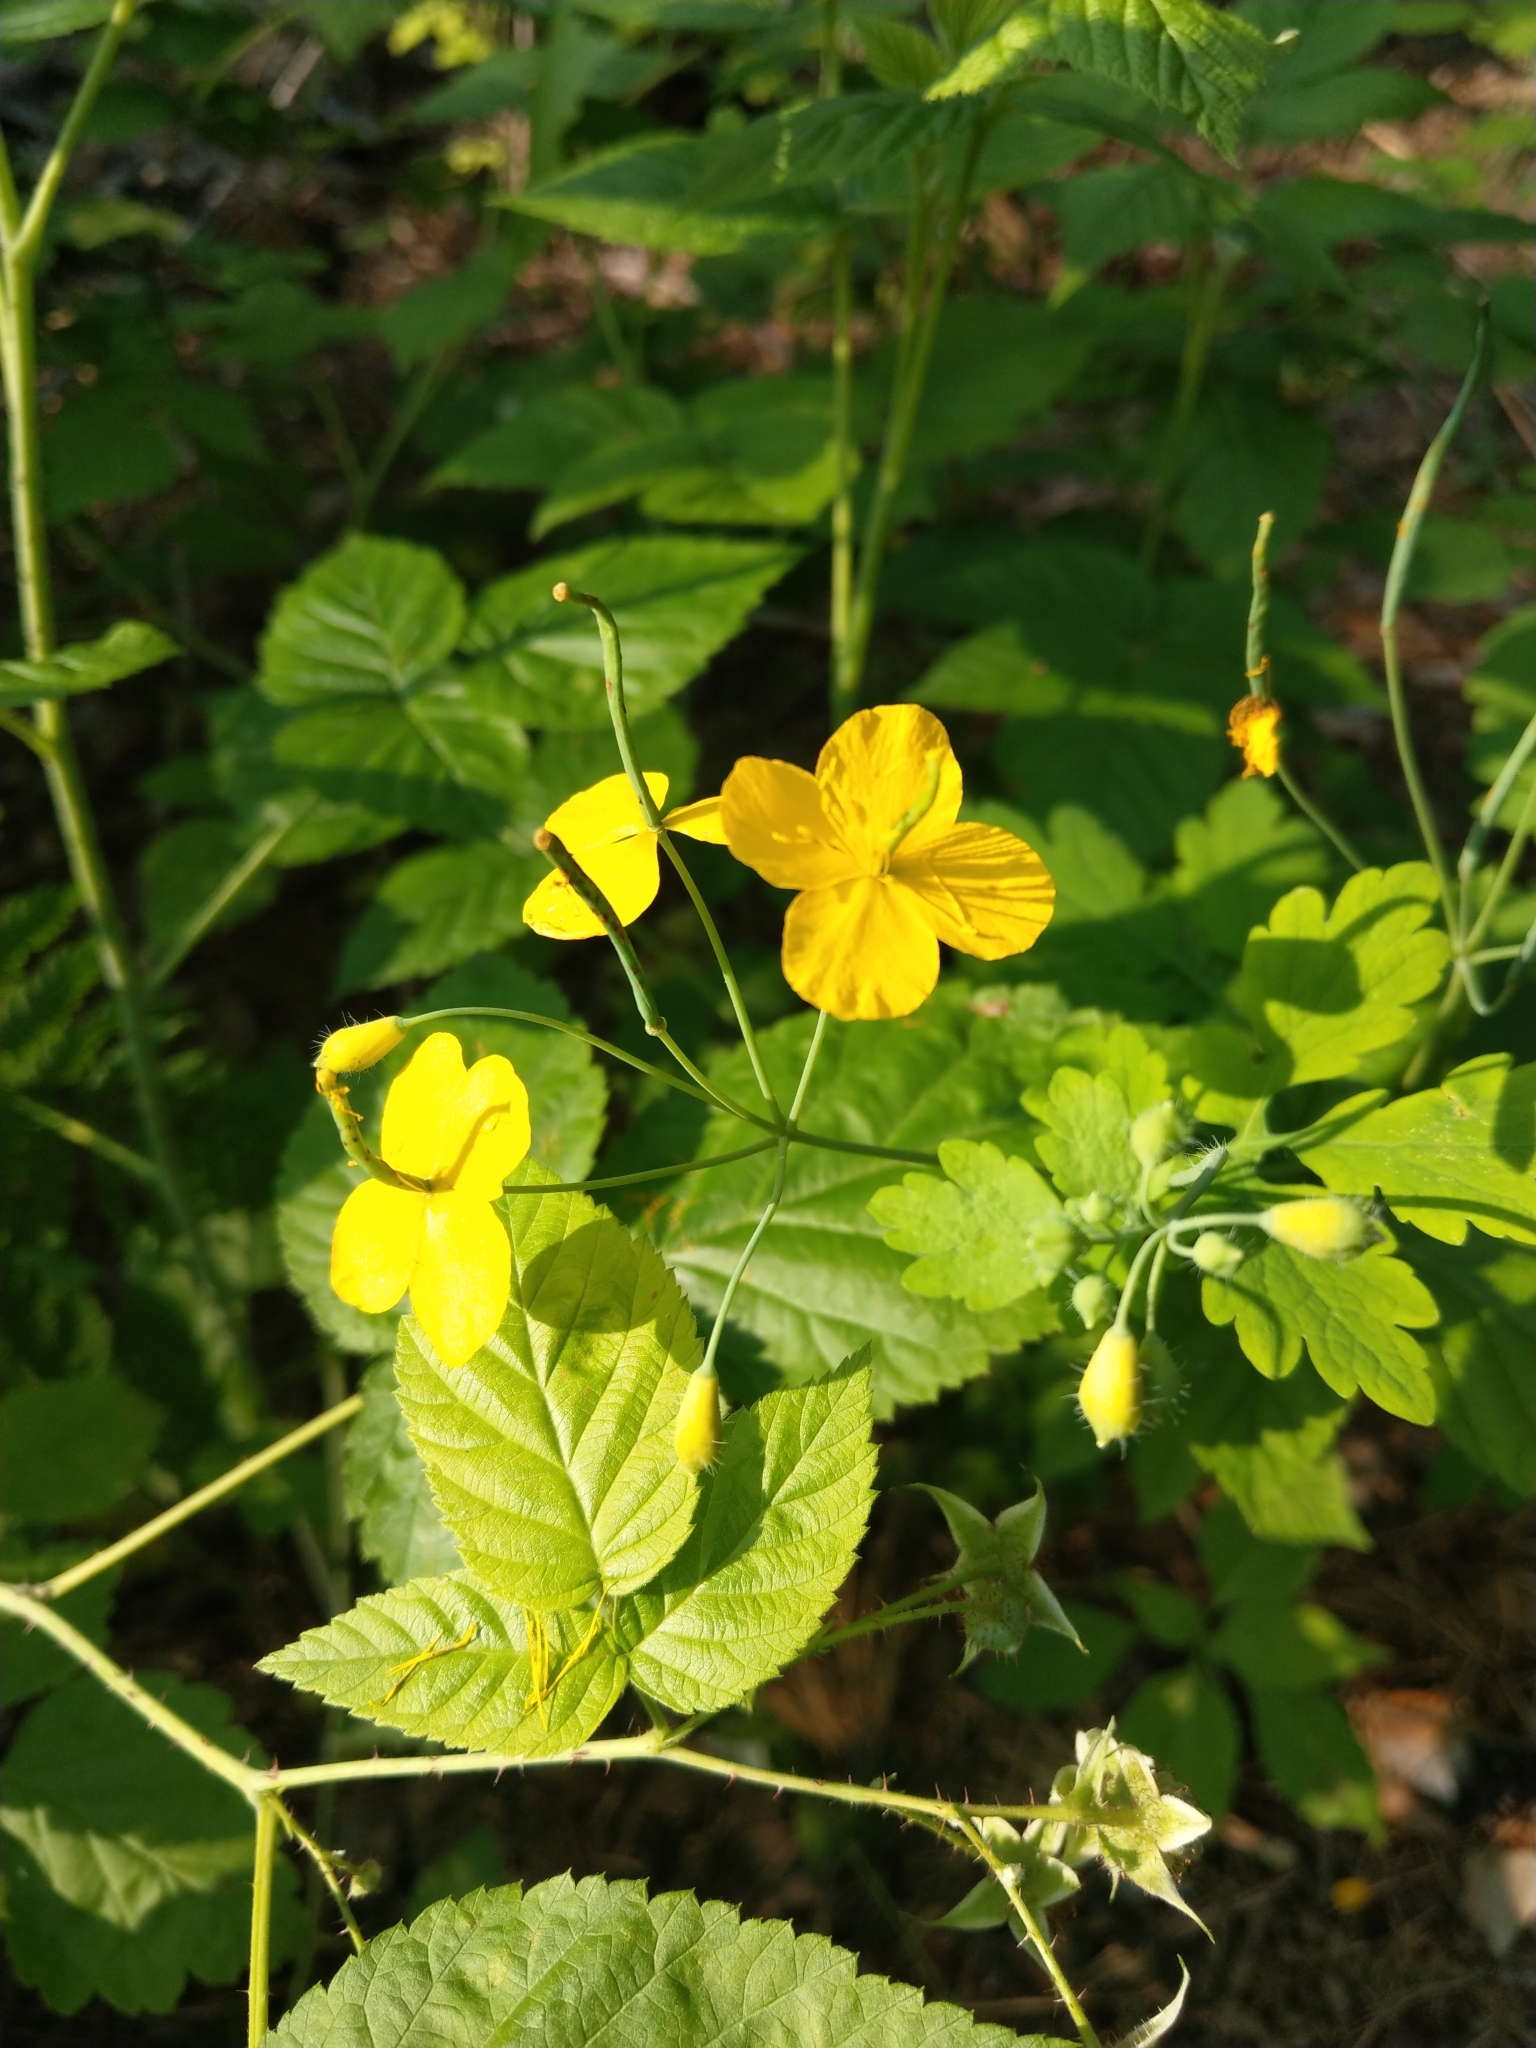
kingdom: Plantae
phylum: Tracheophyta
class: Magnoliopsida
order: Ranunculales
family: Papaveraceae
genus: Chelidonium
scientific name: Chelidonium majus
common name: Greater celandine
